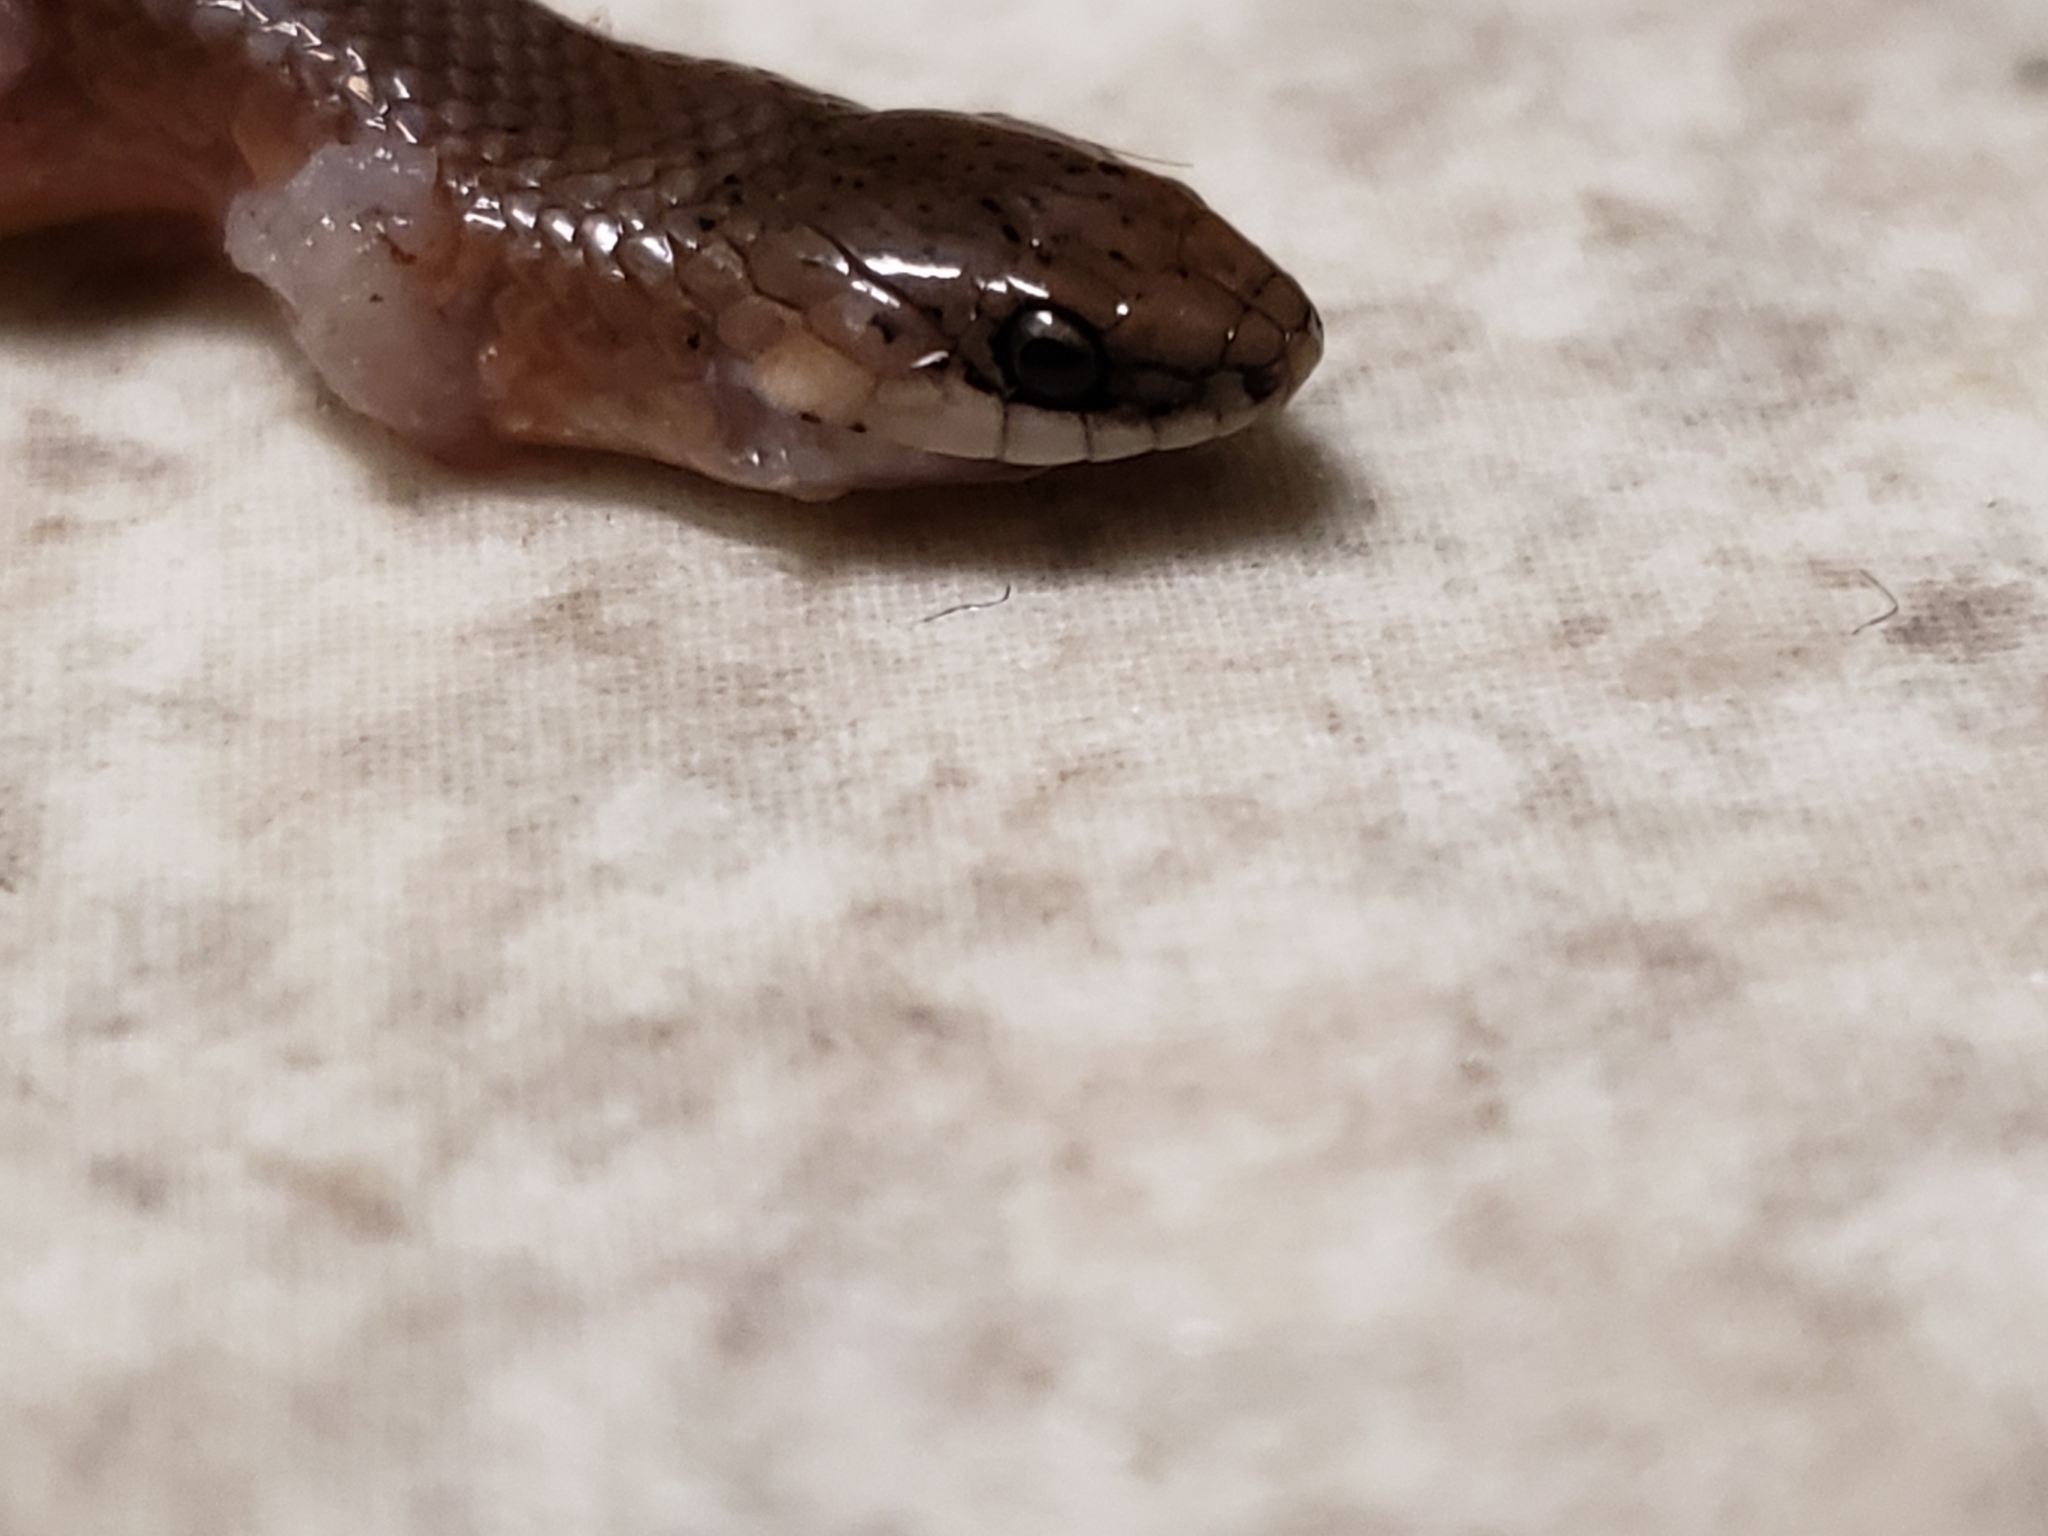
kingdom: Animalia
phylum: Chordata
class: Squamata
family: Colubridae
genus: Virginia
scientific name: Virginia valeriae
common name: Smooth earth snake
